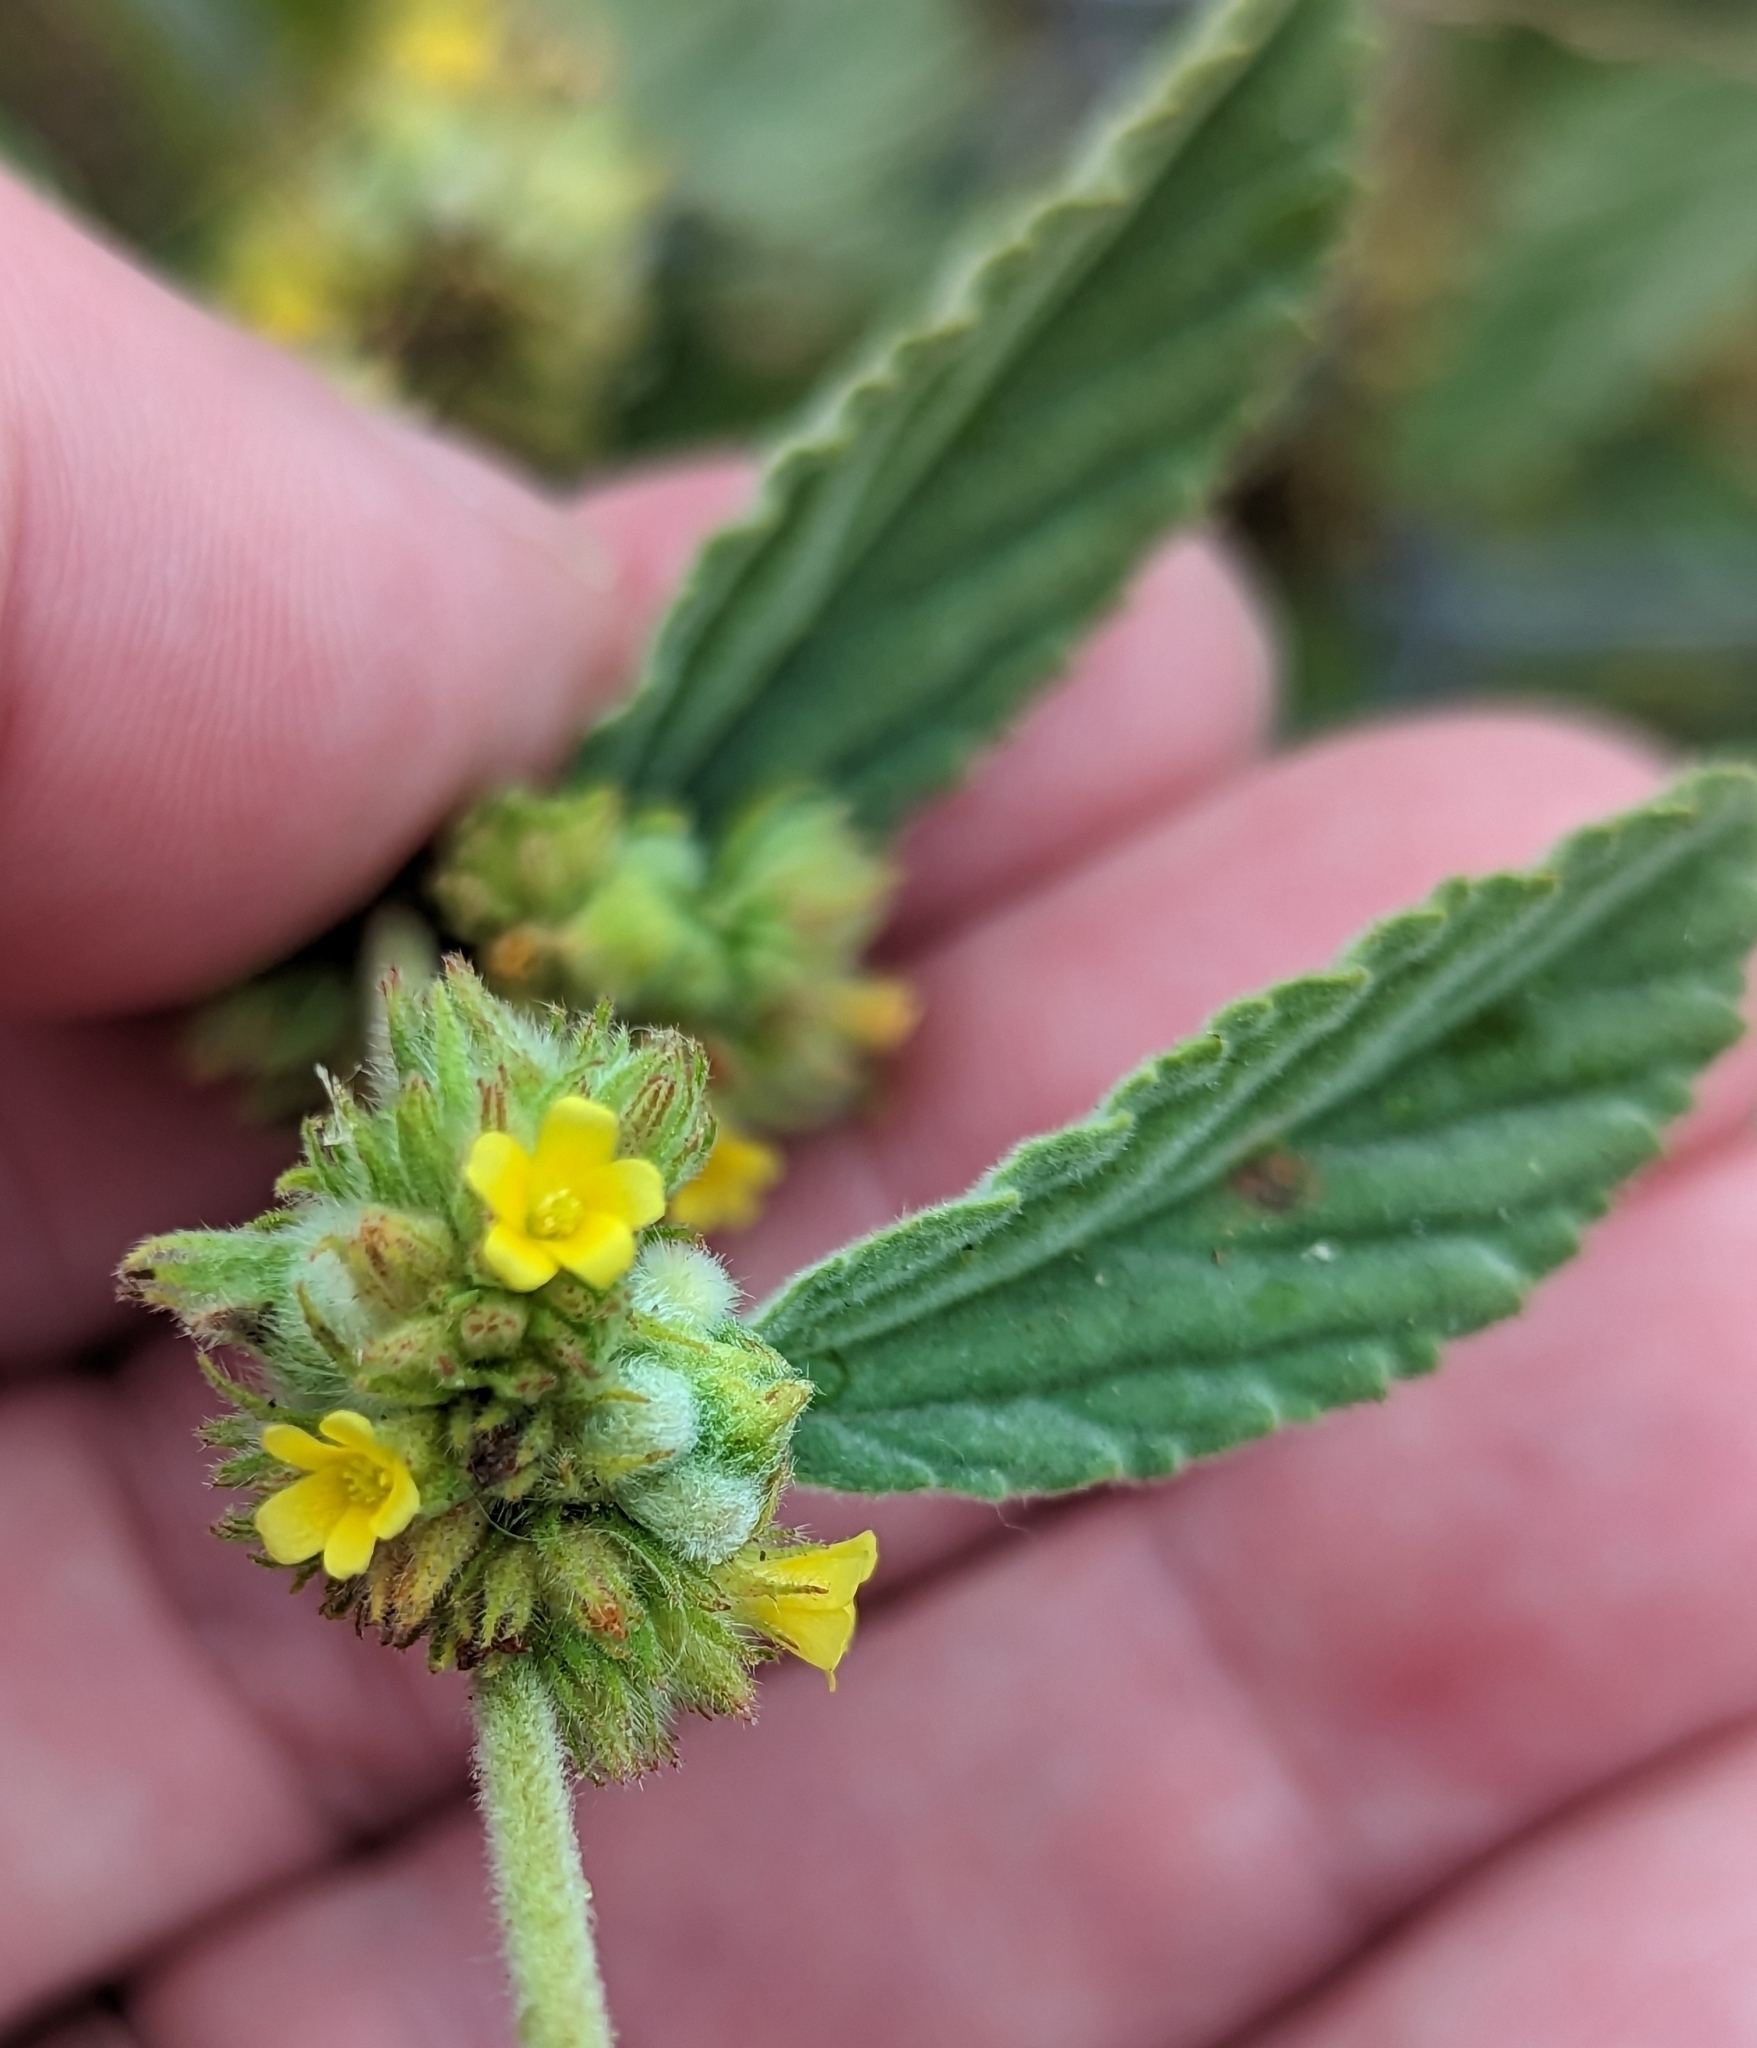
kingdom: Plantae
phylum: Tracheophyta
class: Magnoliopsida
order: Malvales
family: Malvaceae
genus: Waltheria
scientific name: Waltheria indica
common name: Leather-coat
